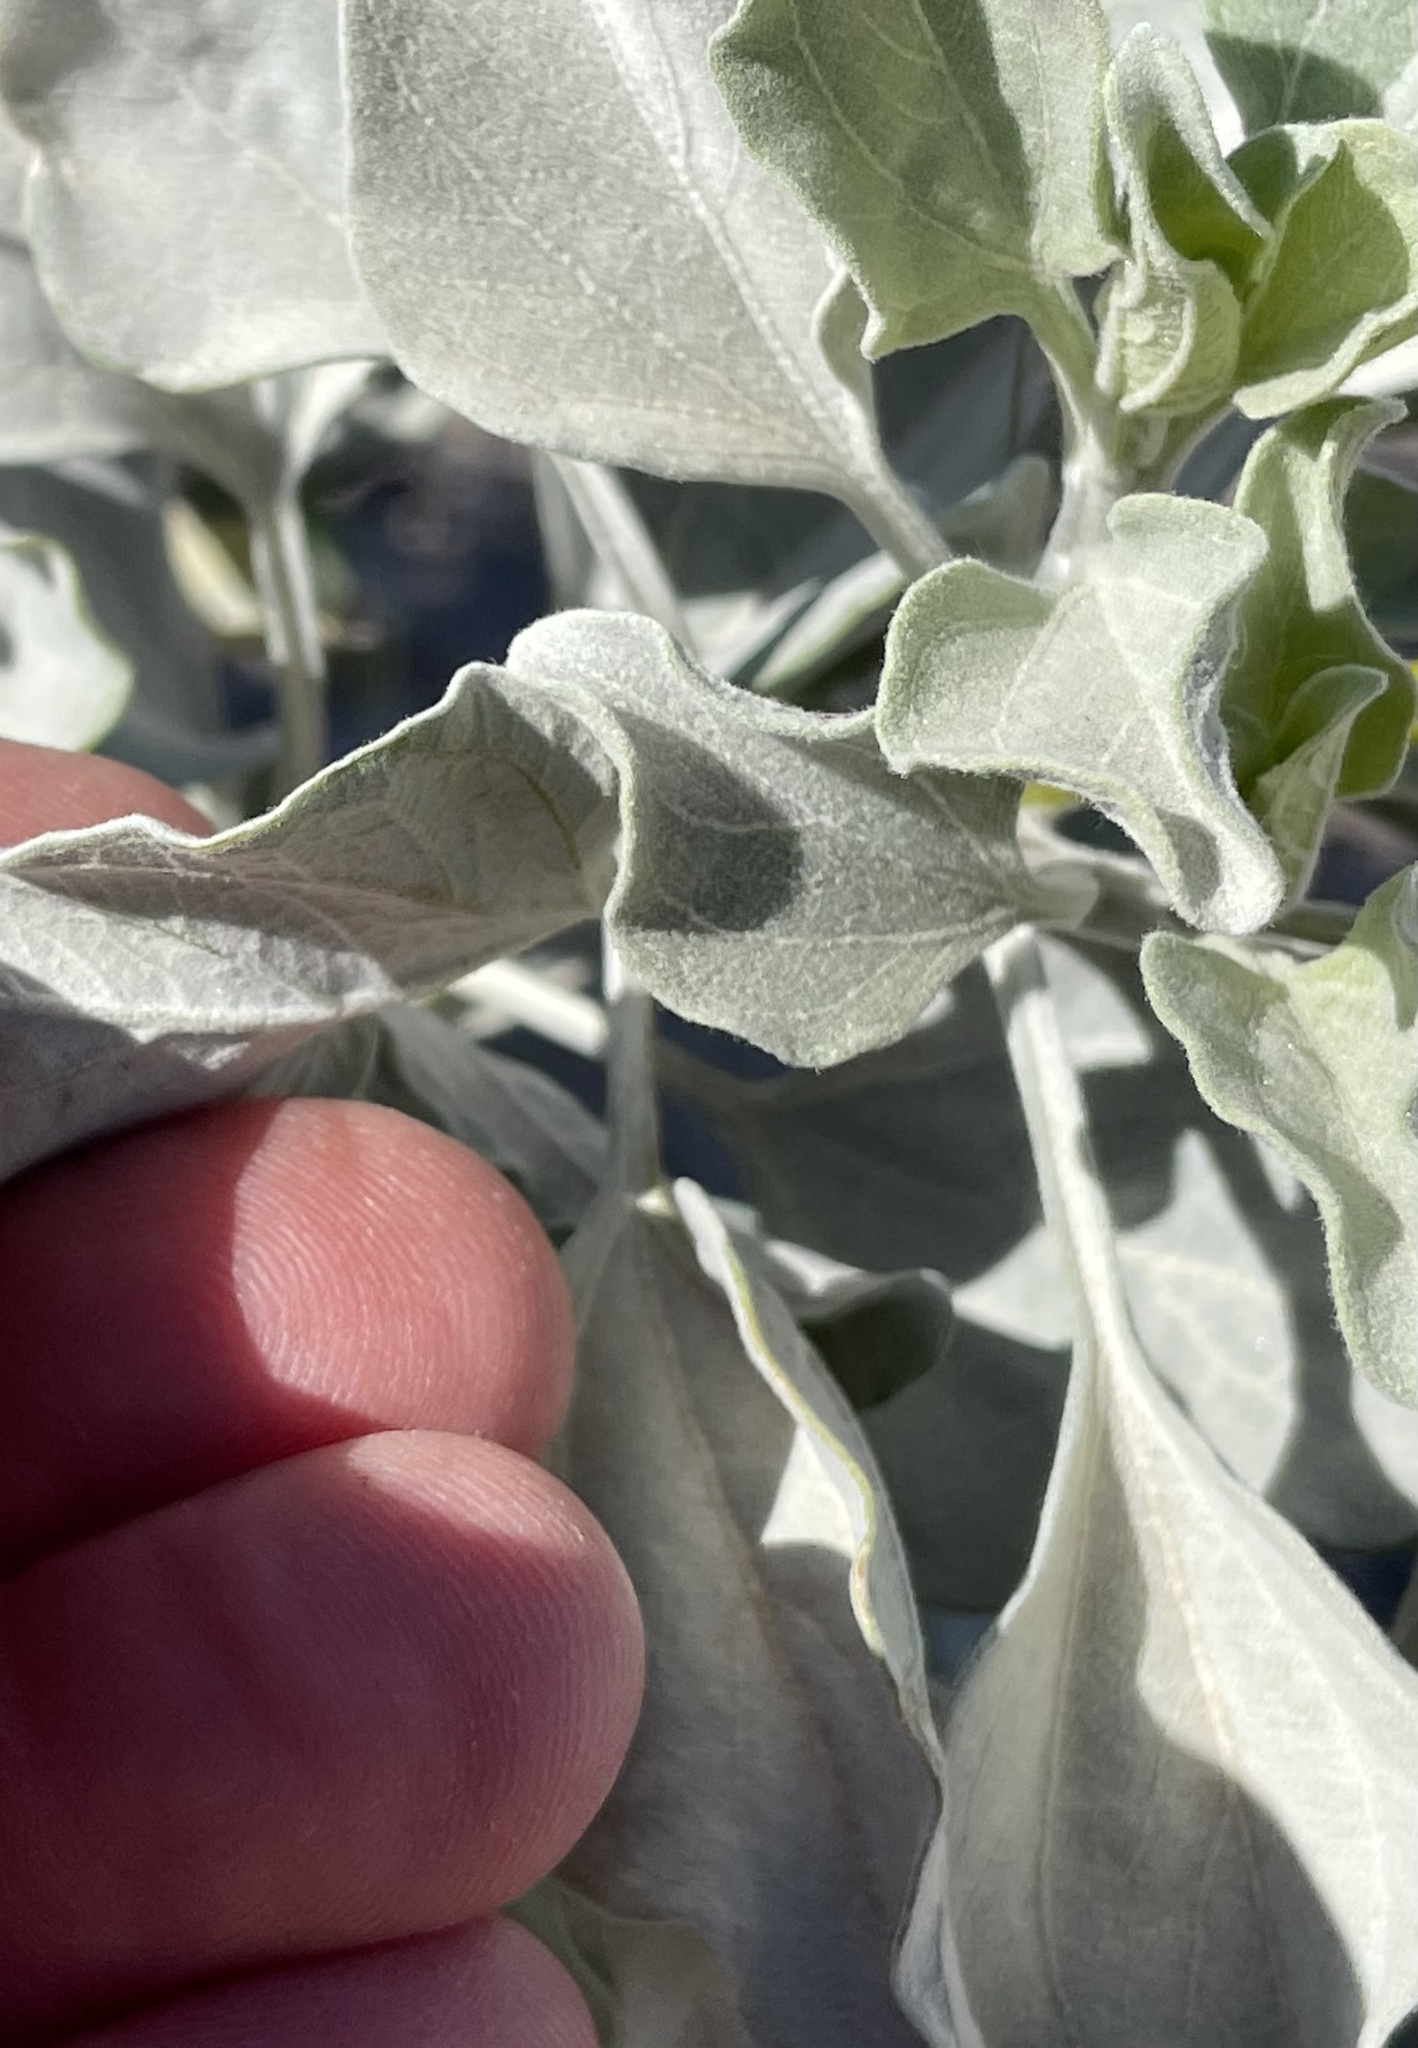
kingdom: Plantae
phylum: Tracheophyta
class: Magnoliopsida
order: Asterales
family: Asteraceae
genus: Encelia
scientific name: Encelia farinosa
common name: Brittlebush
